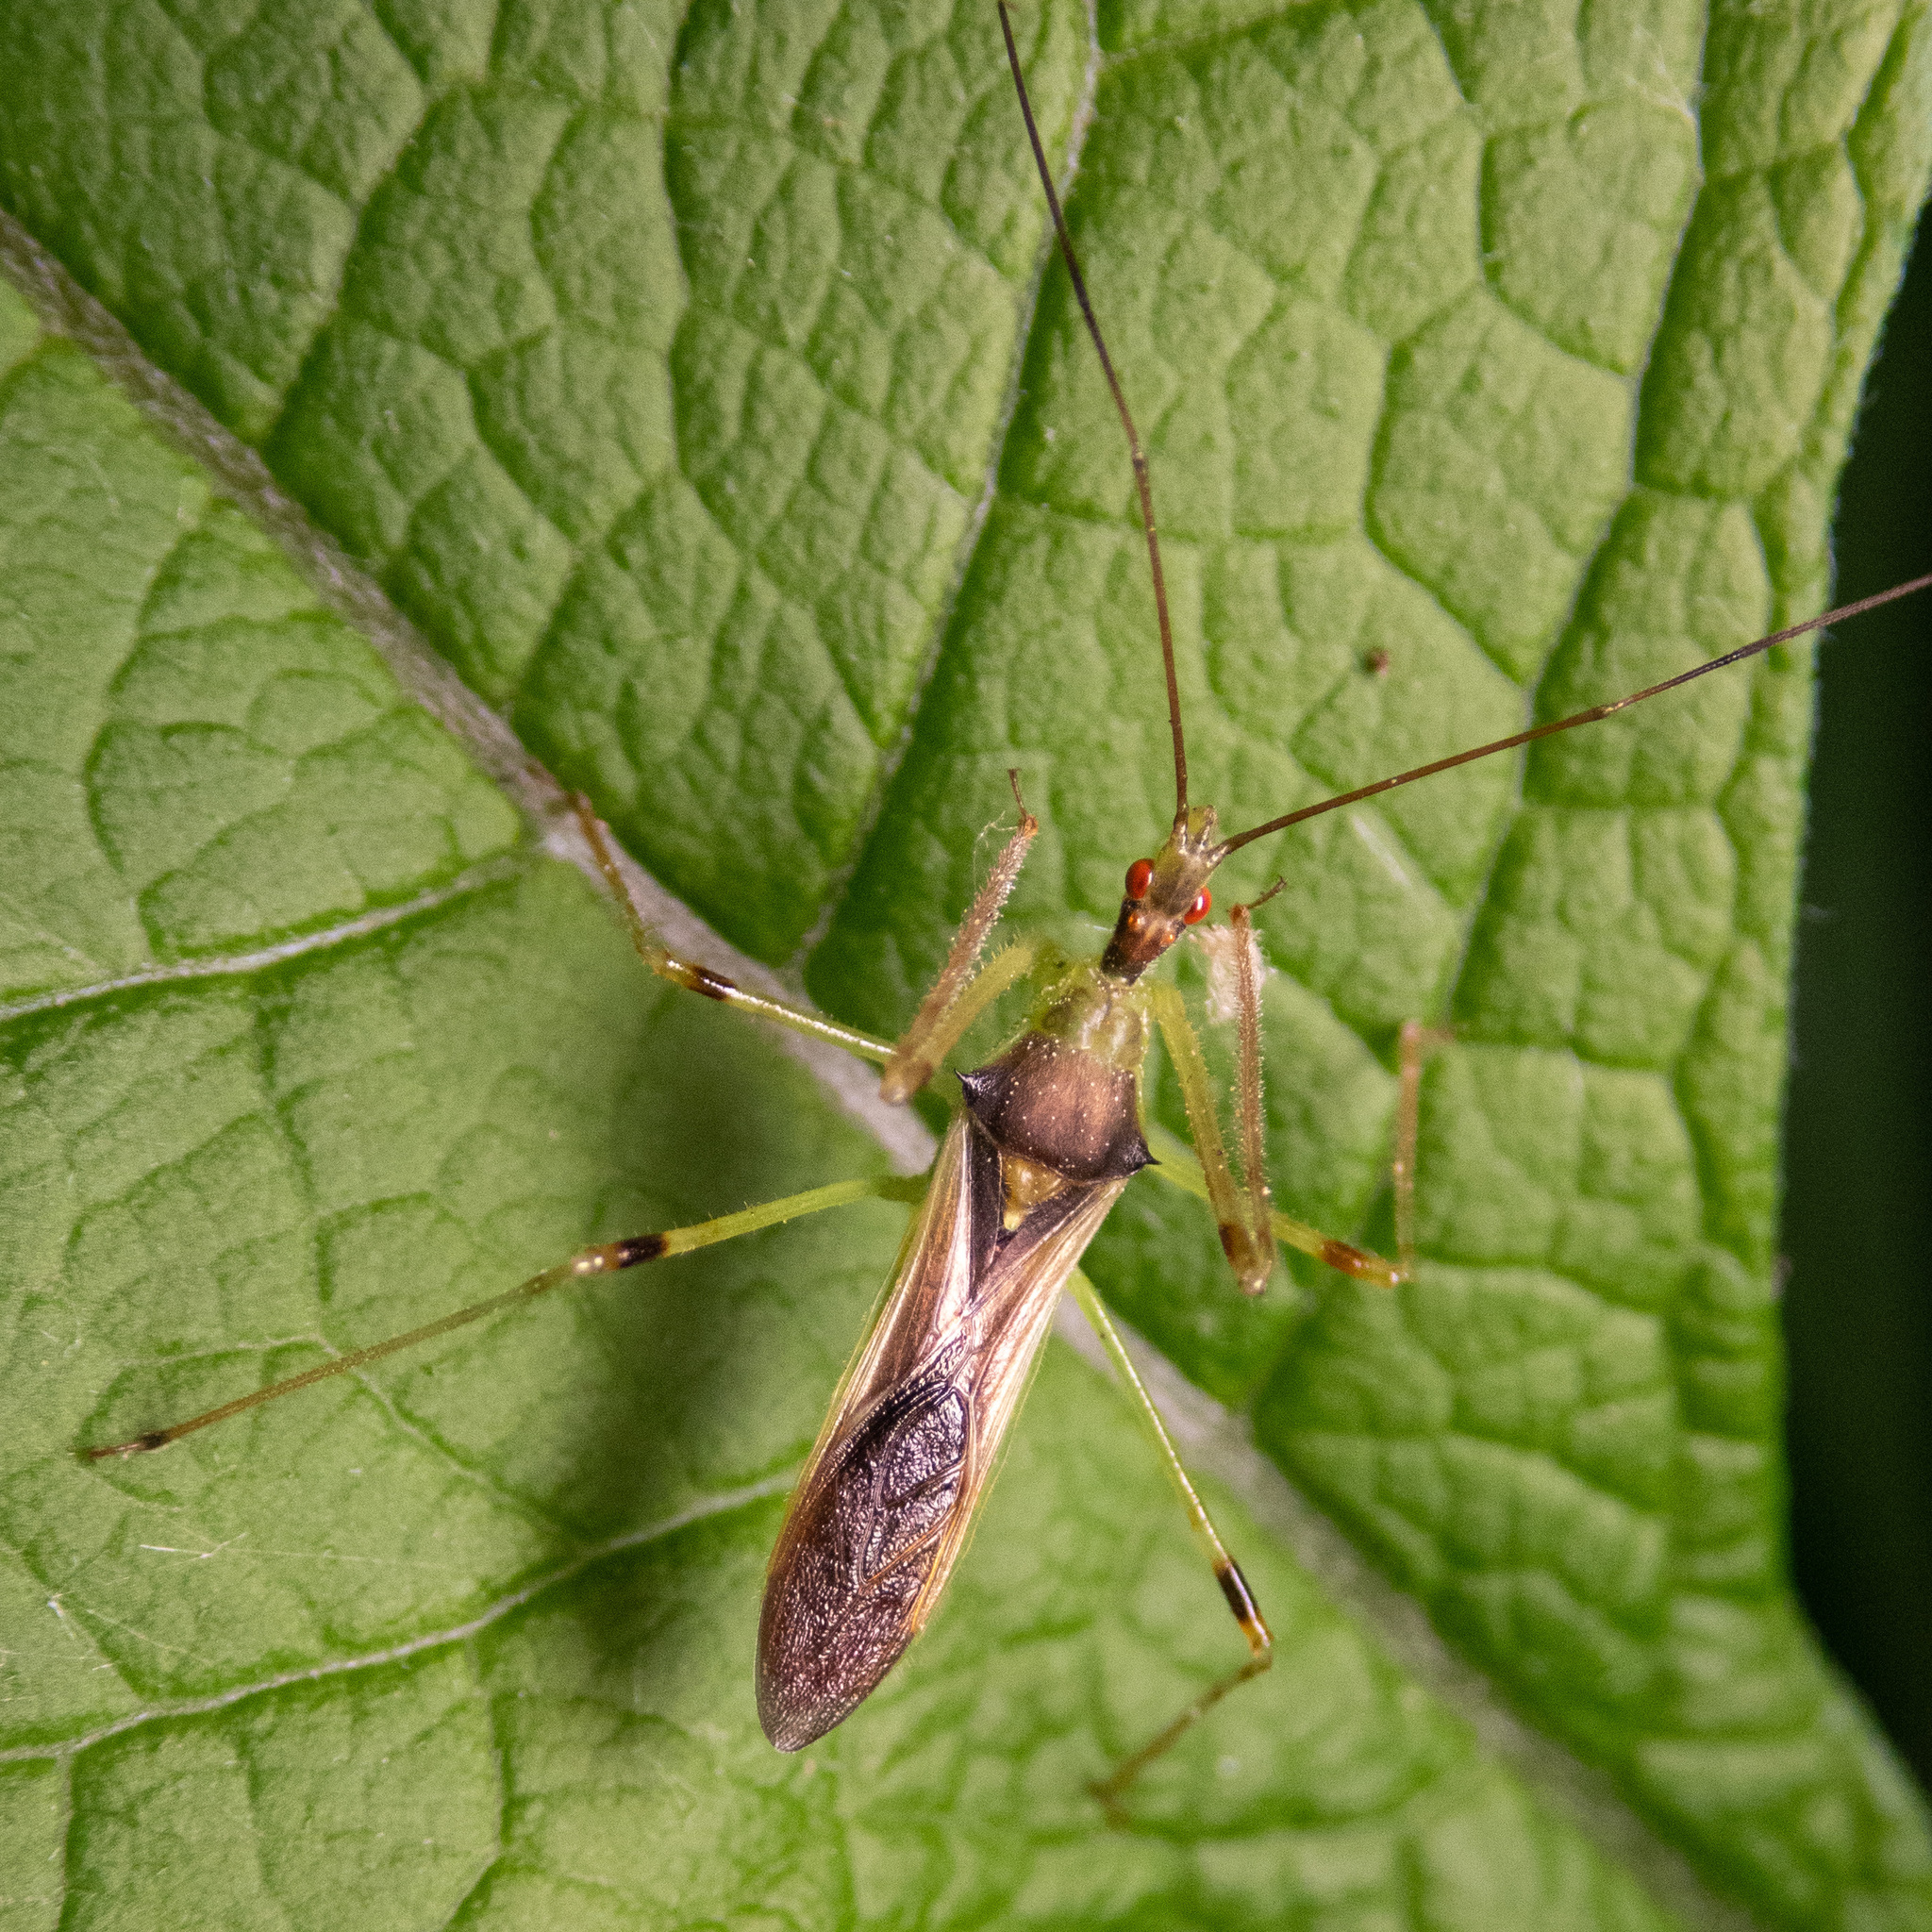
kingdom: Animalia
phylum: Arthropoda
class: Insecta
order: Hemiptera
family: Reduviidae
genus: Zelus
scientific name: Zelus luridus
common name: Pale green assassin bug
